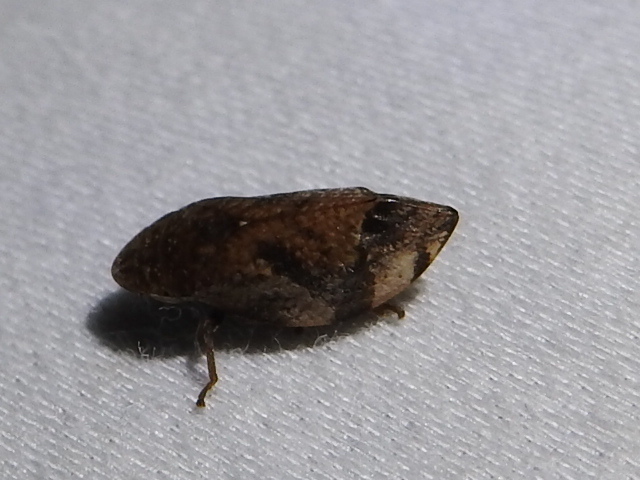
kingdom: Animalia
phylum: Arthropoda
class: Insecta
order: Hemiptera
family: Aphrophoridae
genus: Lepyronia
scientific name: Lepyronia quadrangularis
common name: Diamond-backed spittlebug
